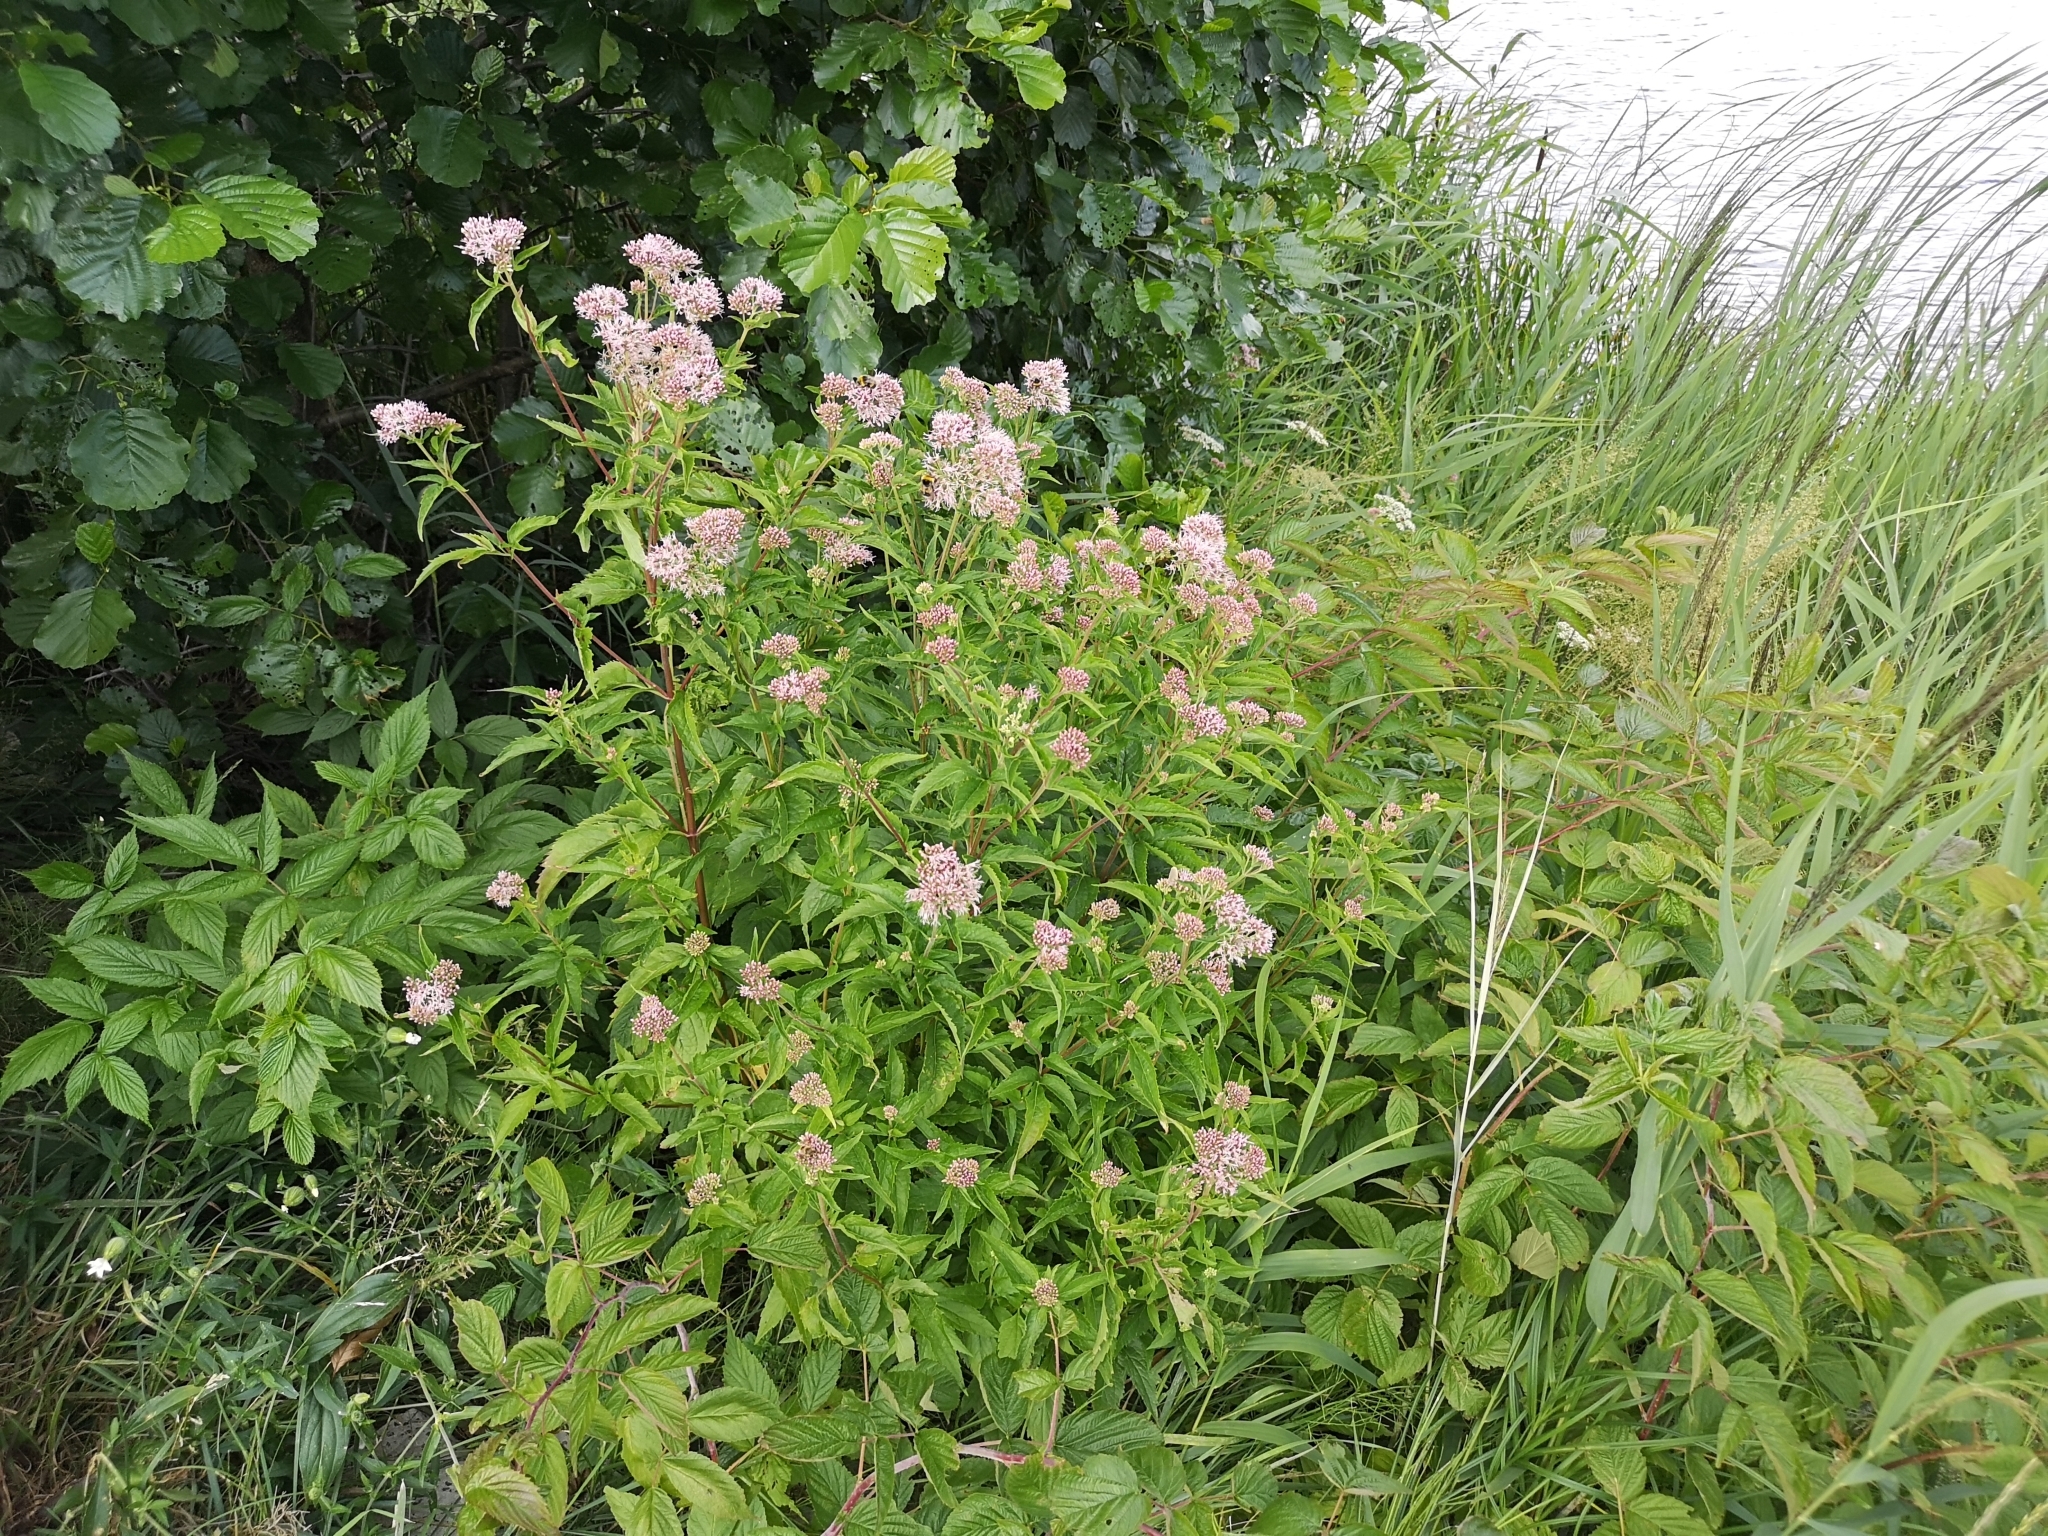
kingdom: Plantae
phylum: Tracheophyta
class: Magnoliopsida
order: Asterales
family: Asteraceae
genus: Eupatorium
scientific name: Eupatorium cannabinum
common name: Hemp-agrimony
